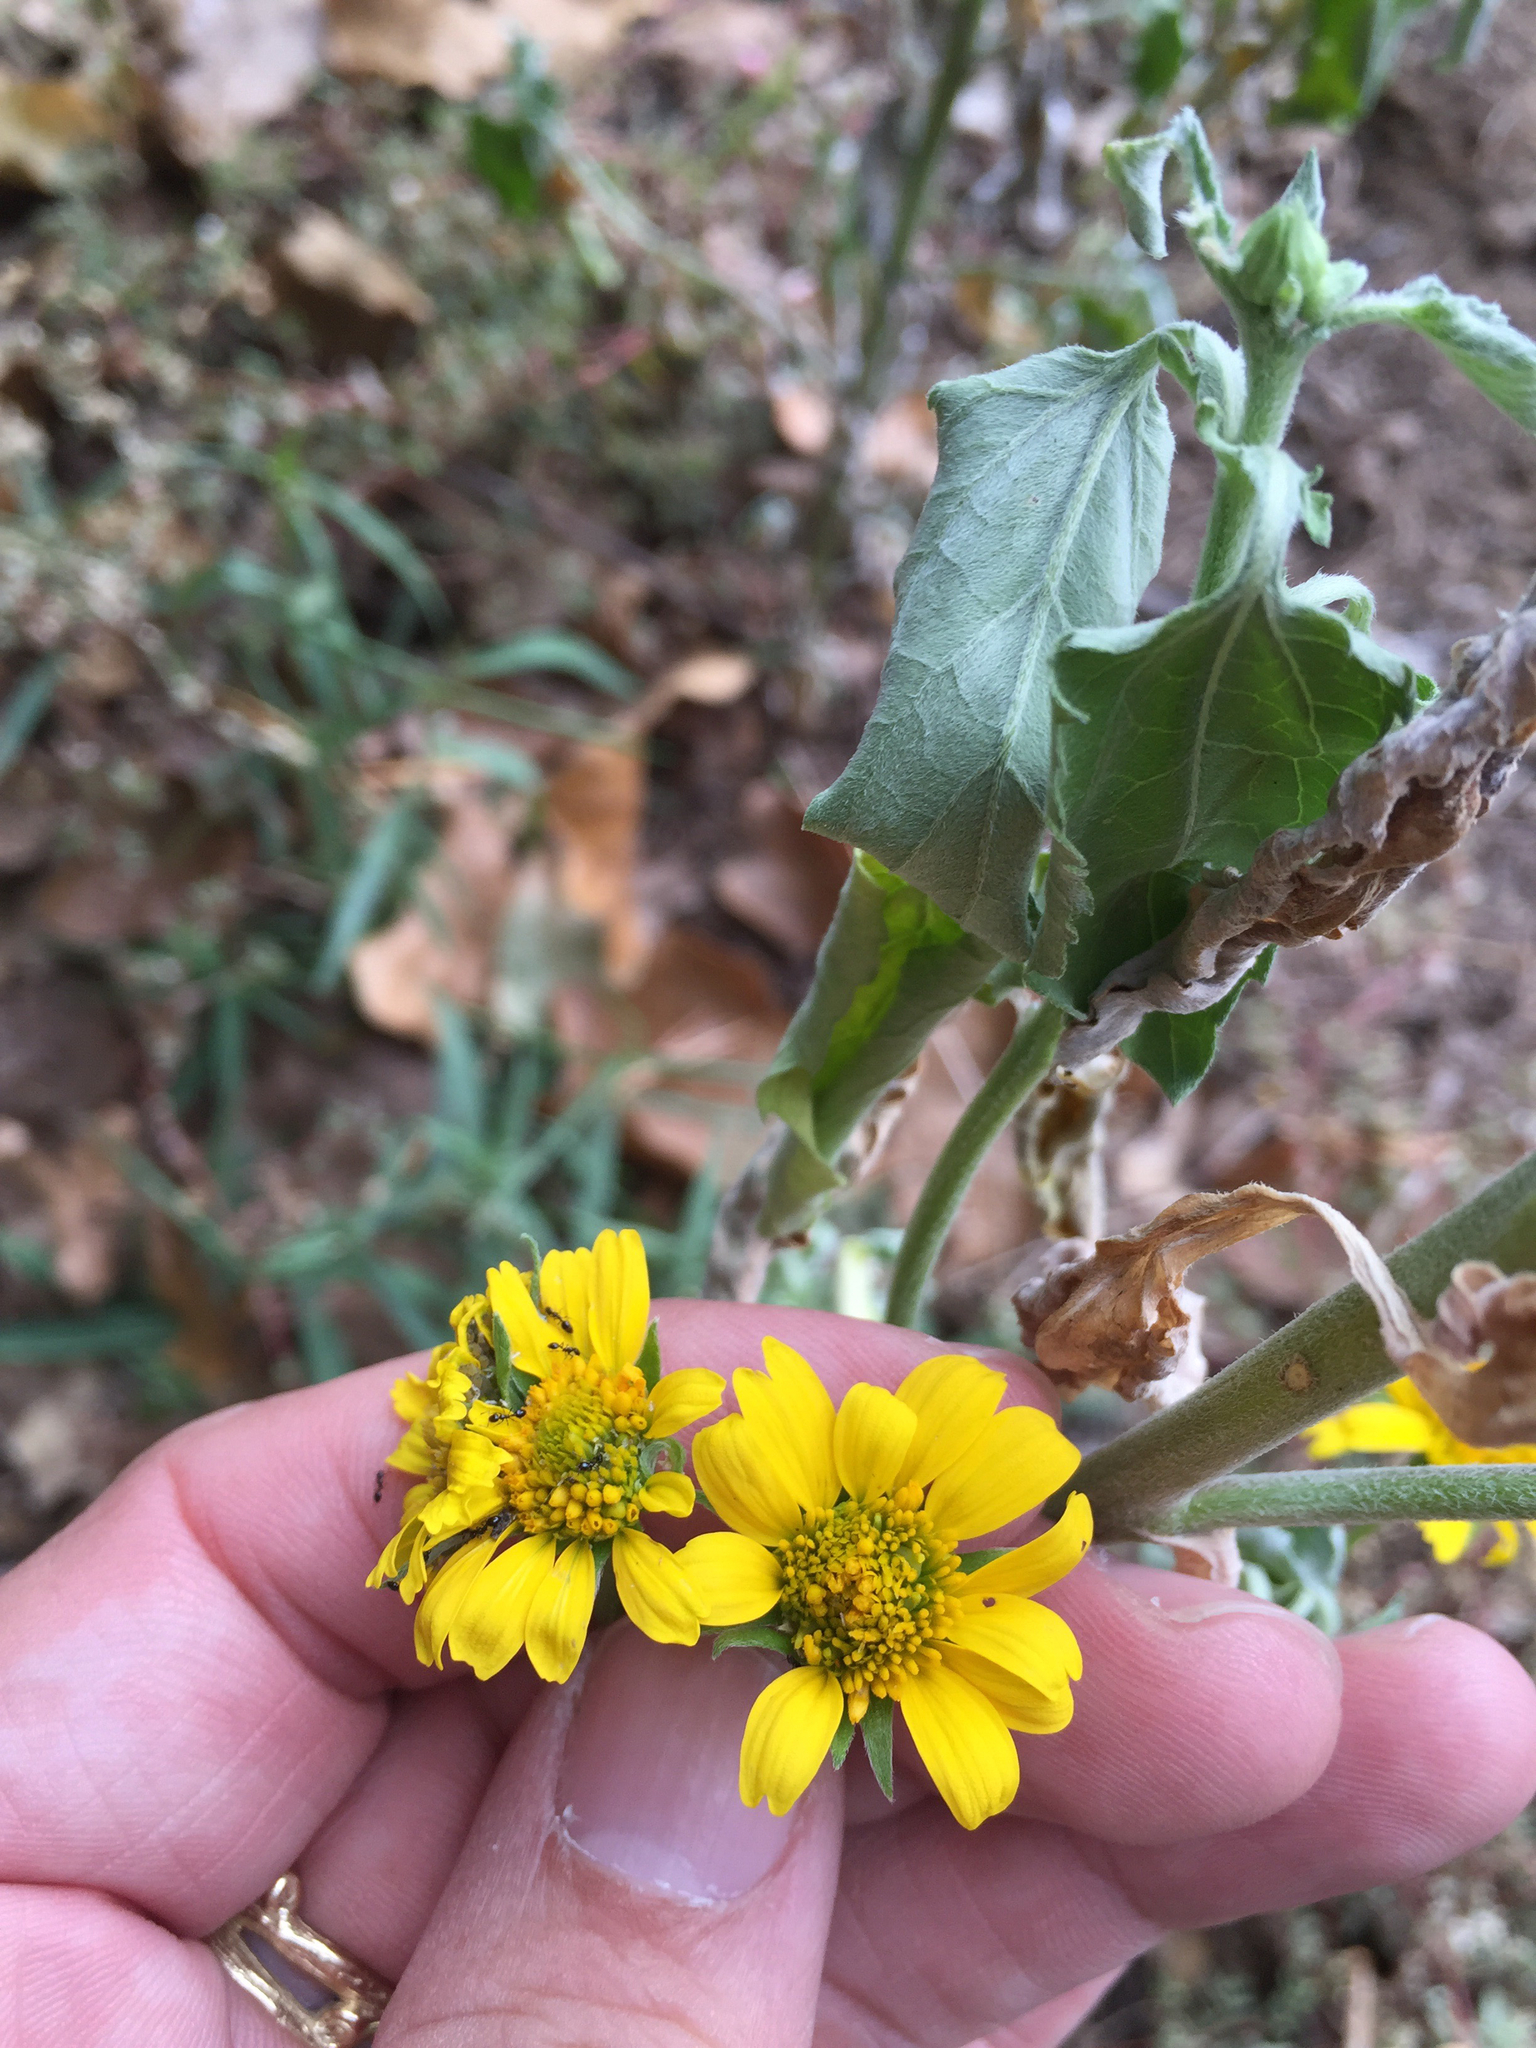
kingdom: Plantae
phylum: Tracheophyta
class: Magnoliopsida
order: Asterales
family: Asteraceae
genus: Verbesina
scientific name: Verbesina encelioides
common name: Golden crownbeard
